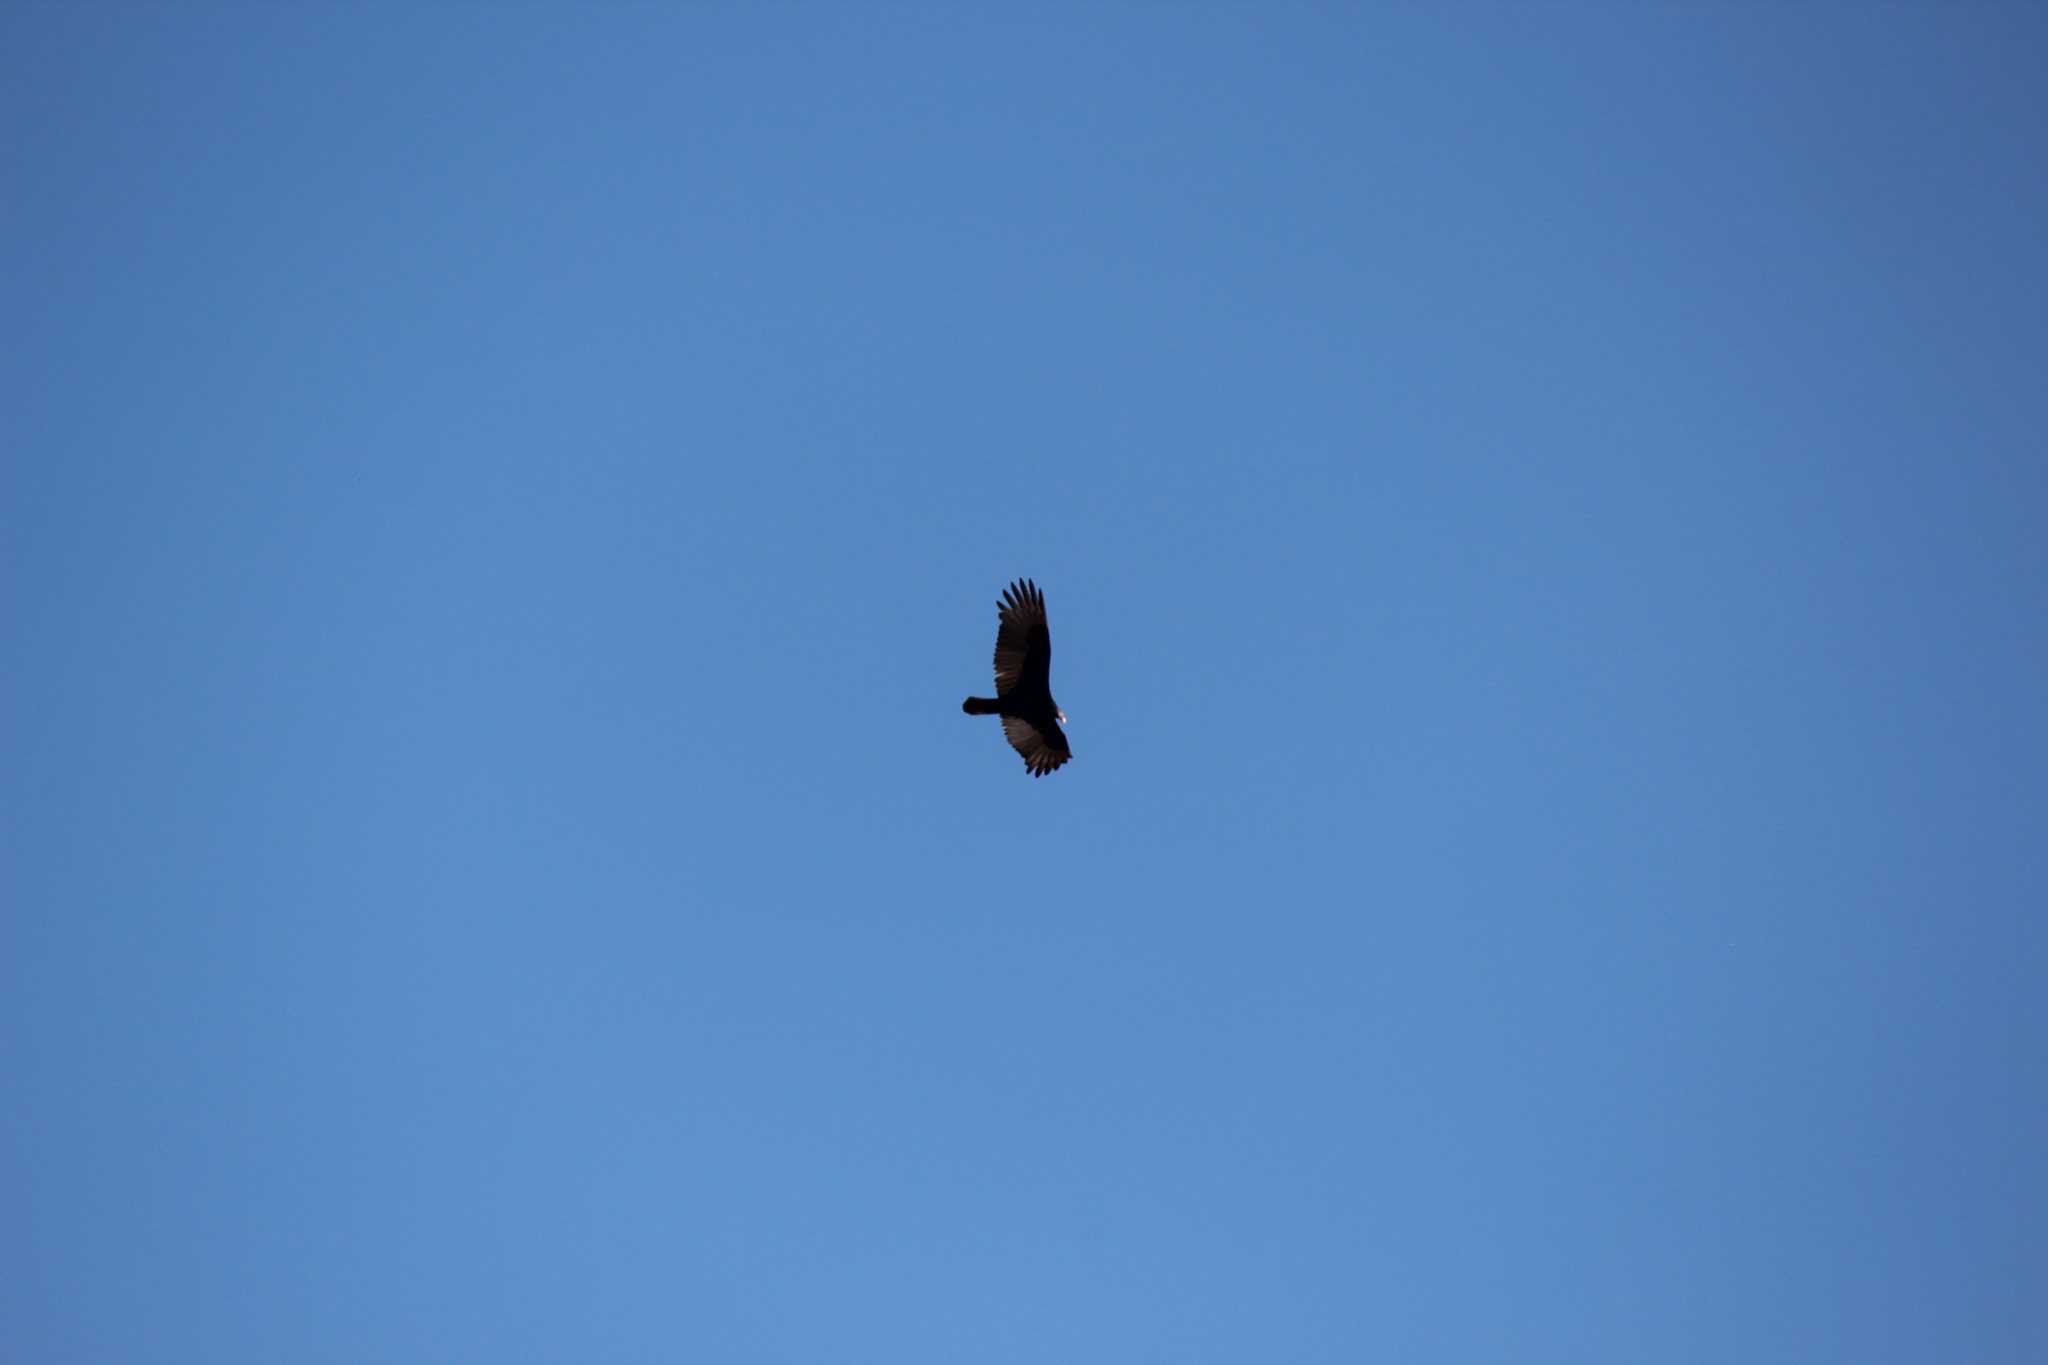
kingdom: Animalia
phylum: Chordata
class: Aves
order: Accipitriformes
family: Cathartidae
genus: Cathartes
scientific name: Cathartes aura
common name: Turkey vulture
